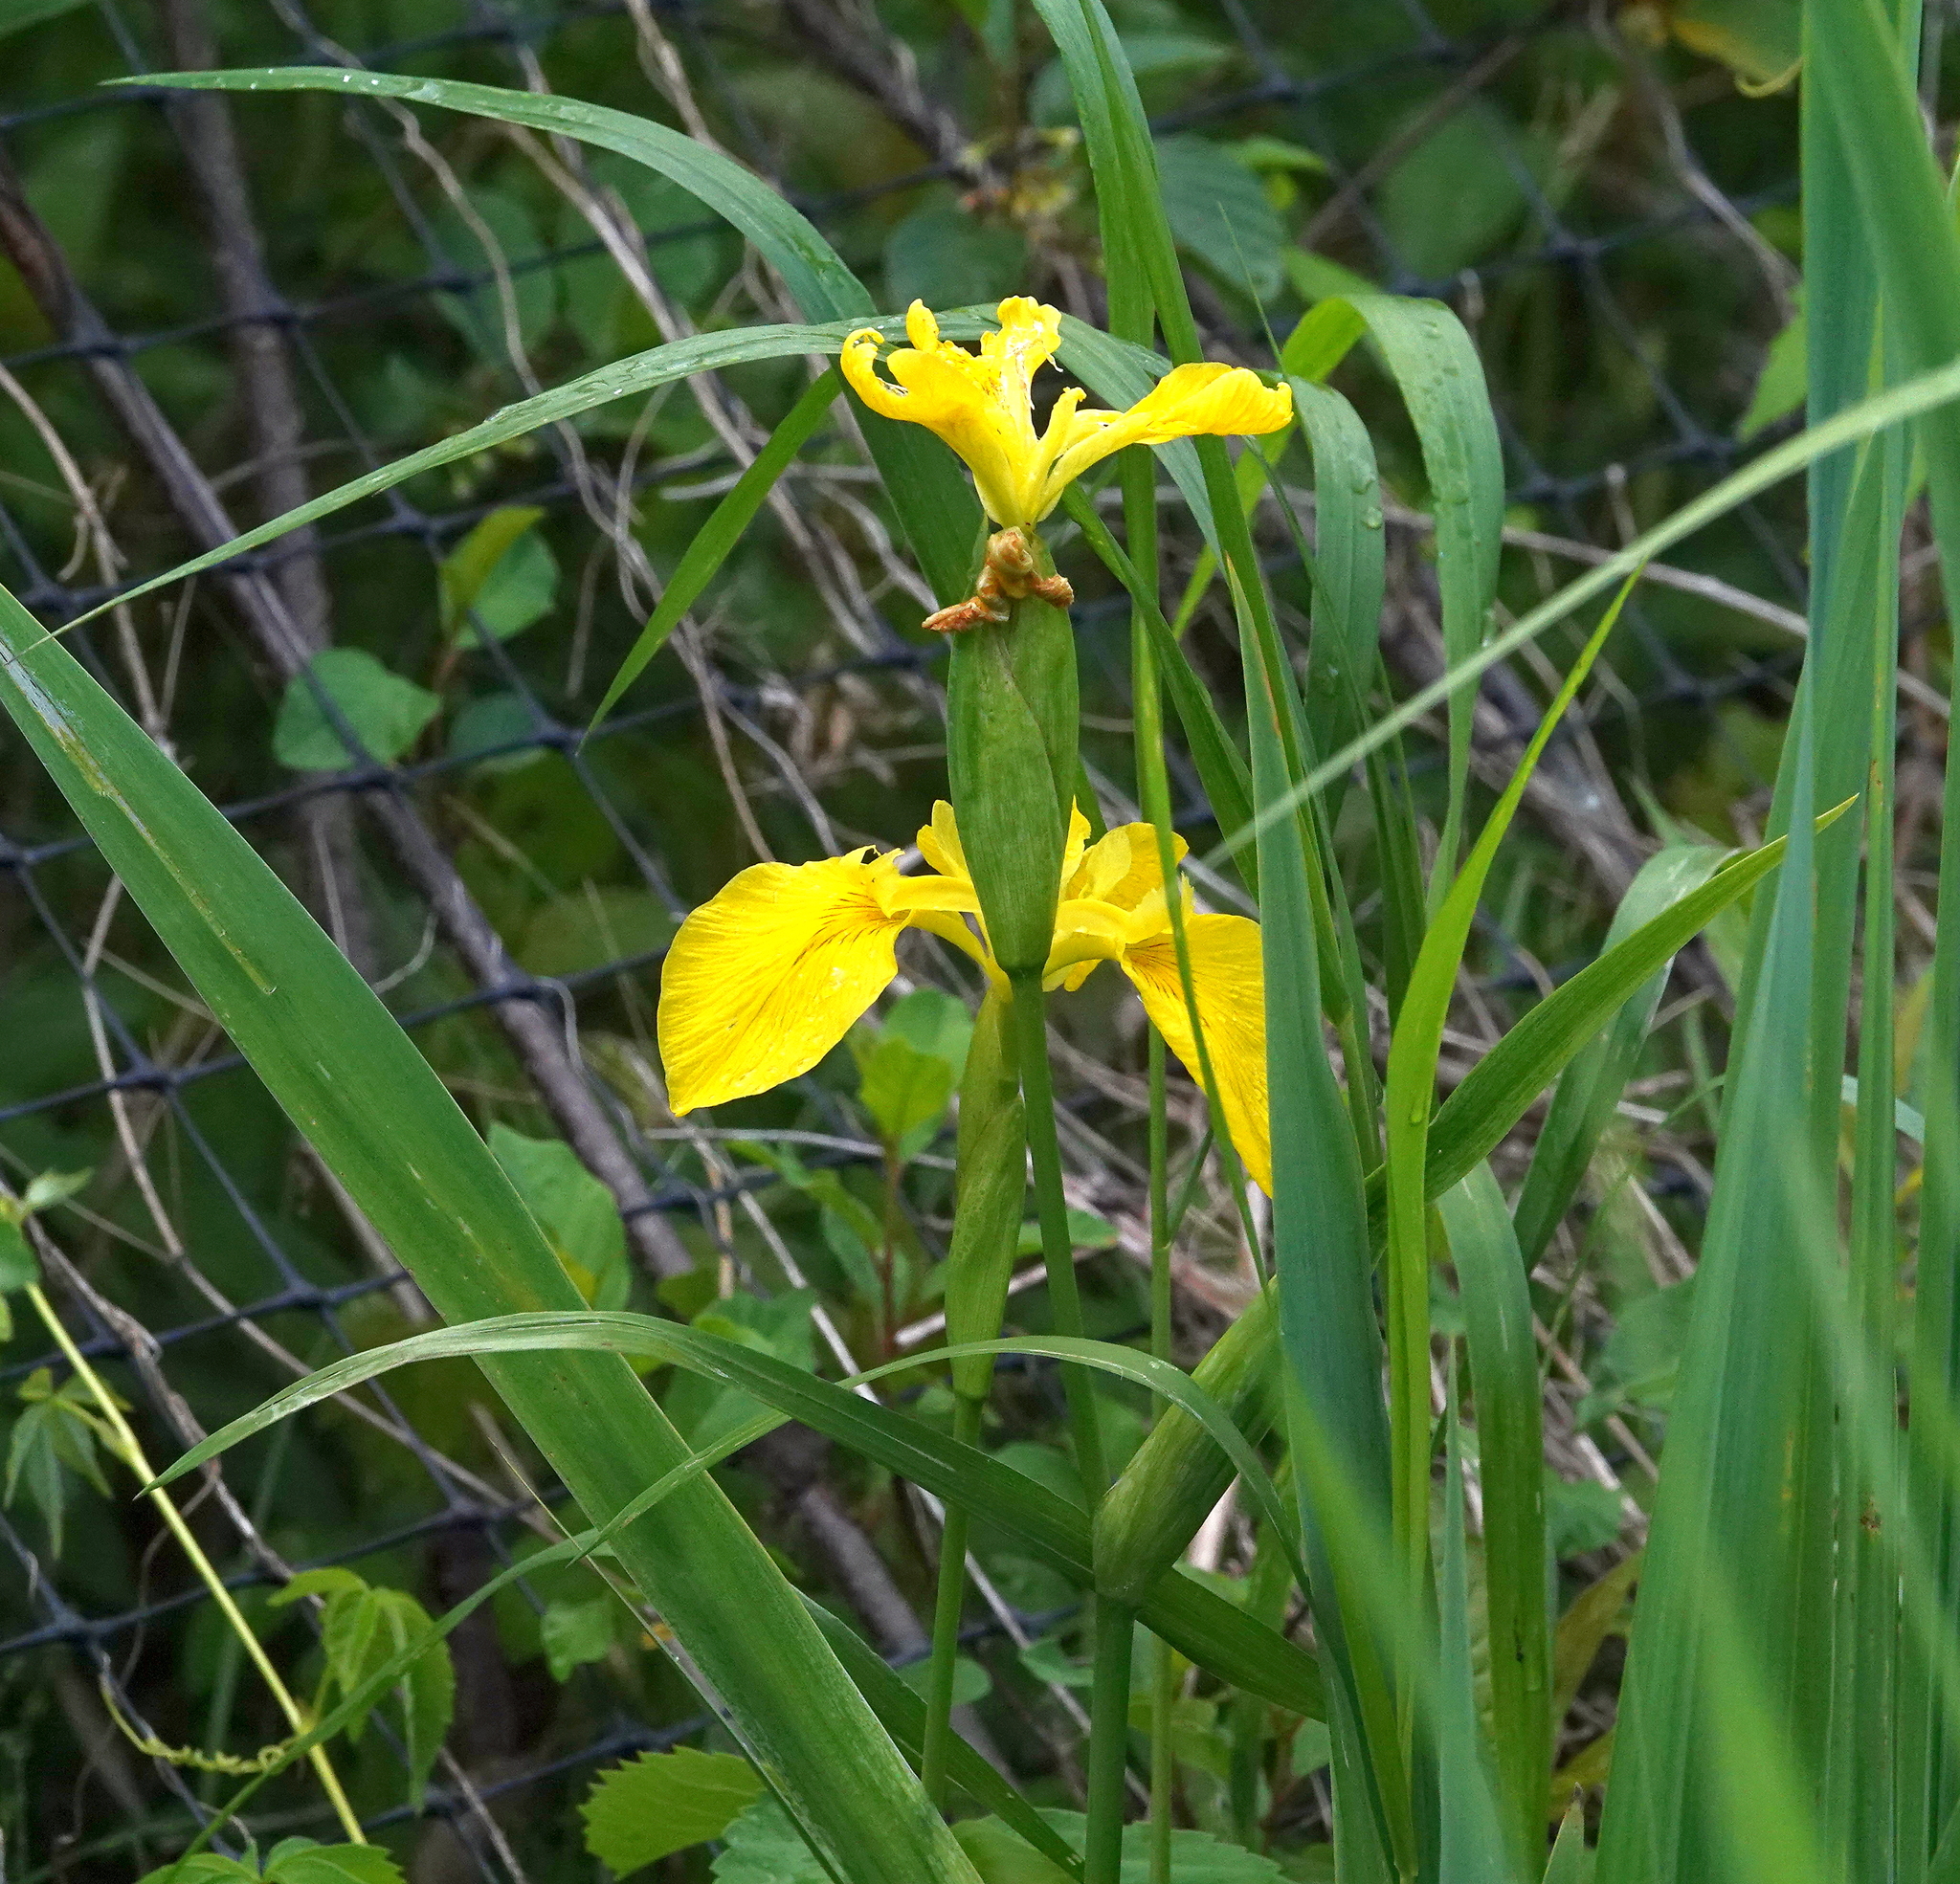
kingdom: Plantae
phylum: Tracheophyta
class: Liliopsida
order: Asparagales
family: Iridaceae
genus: Iris
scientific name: Iris pseudacorus
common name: Yellow flag
